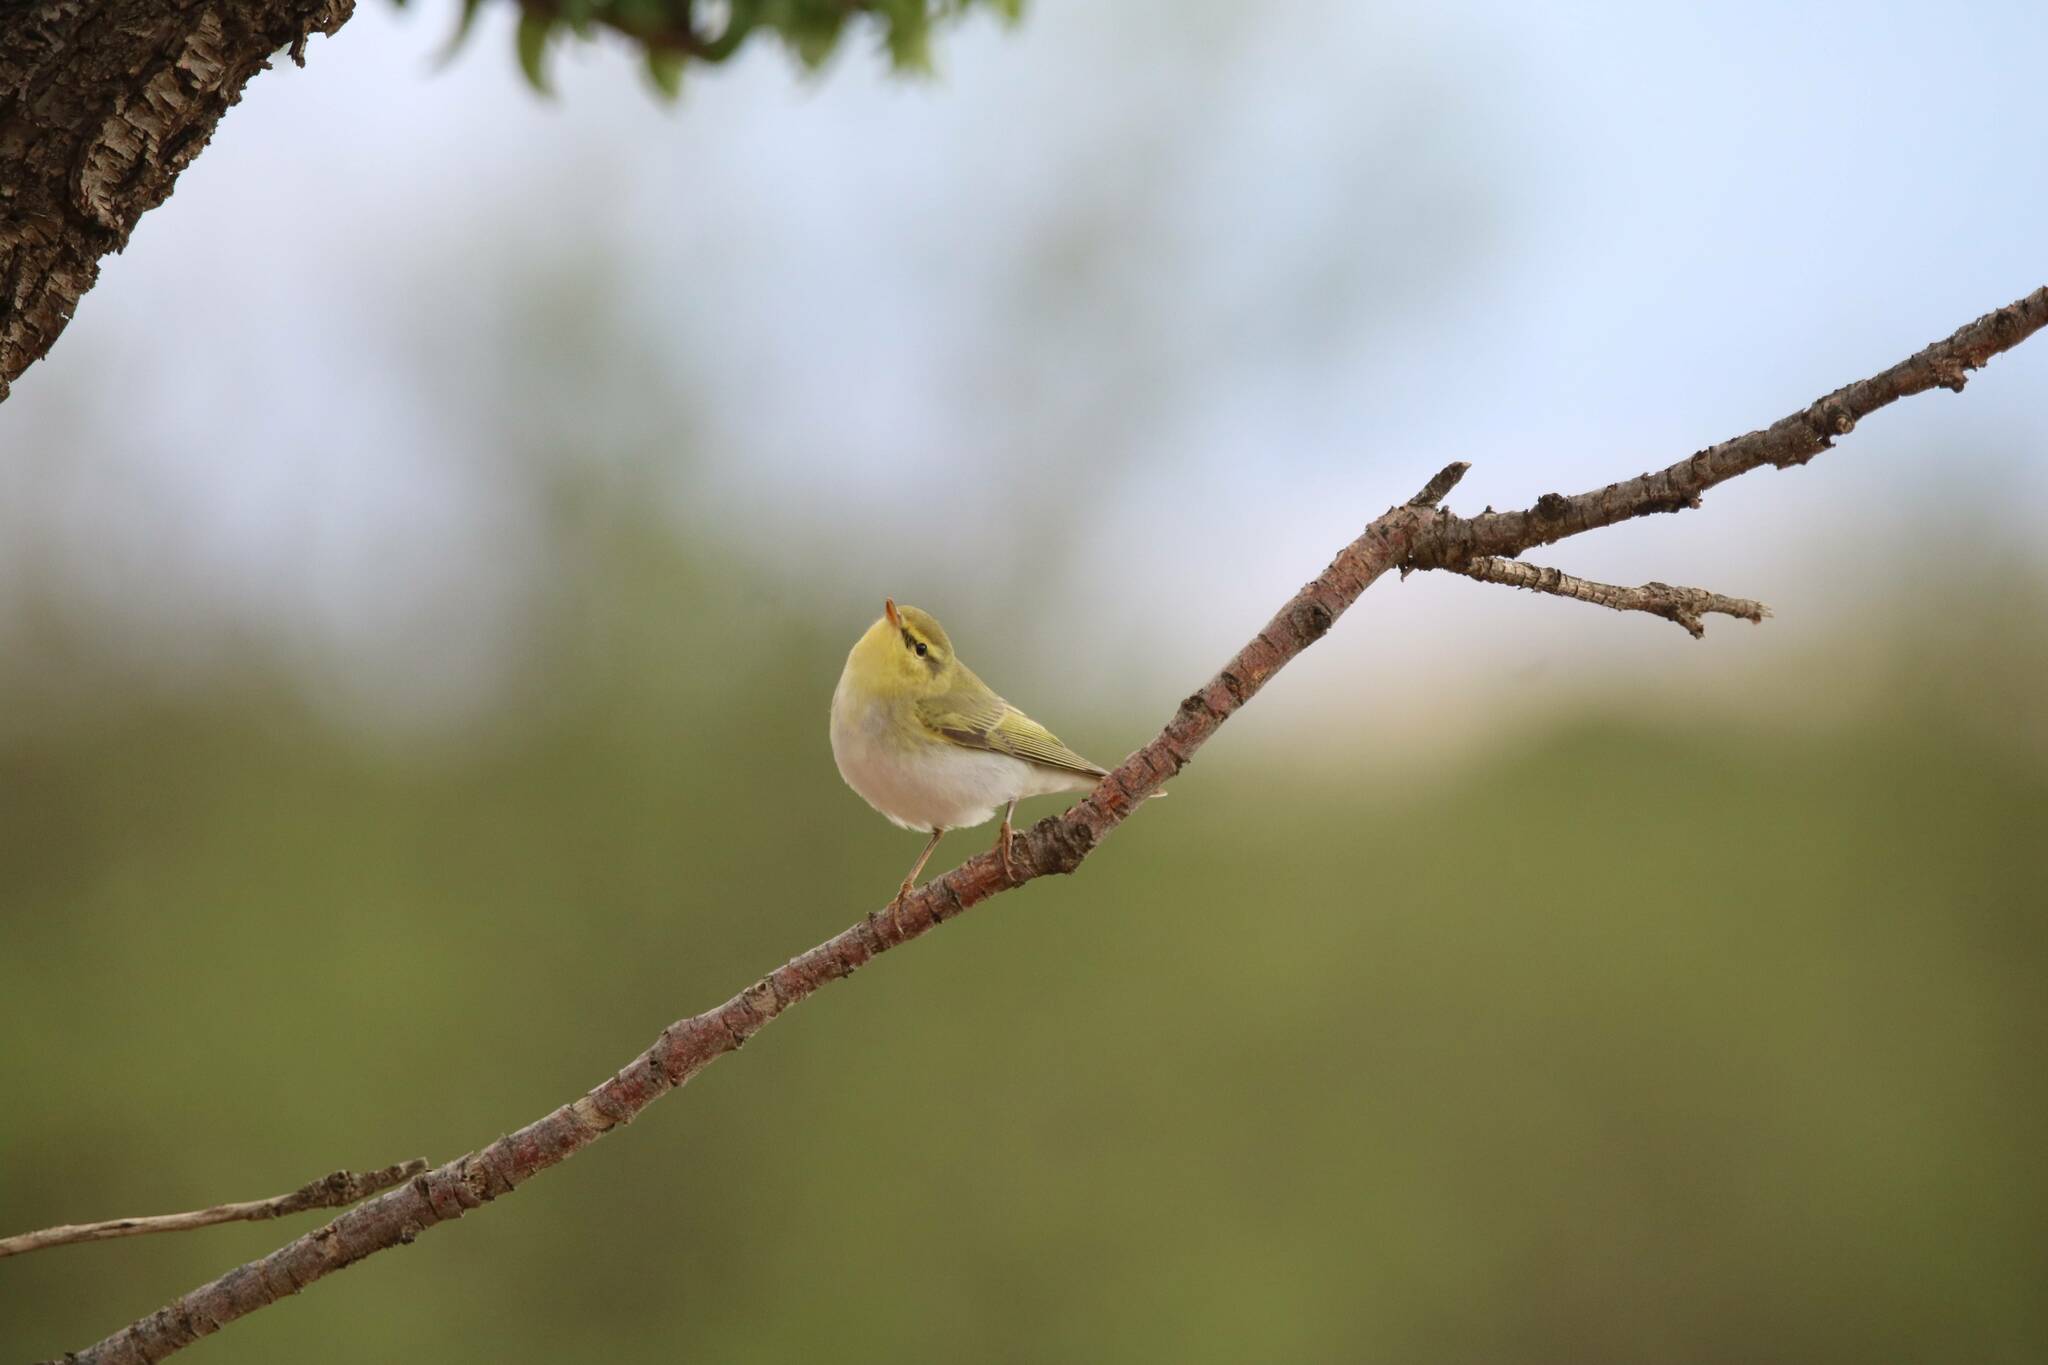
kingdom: Animalia
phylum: Chordata
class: Aves
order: Passeriformes
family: Phylloscopidae
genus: Phylloscopus
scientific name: Phylloscopus sibillatrix
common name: Wood warbler
